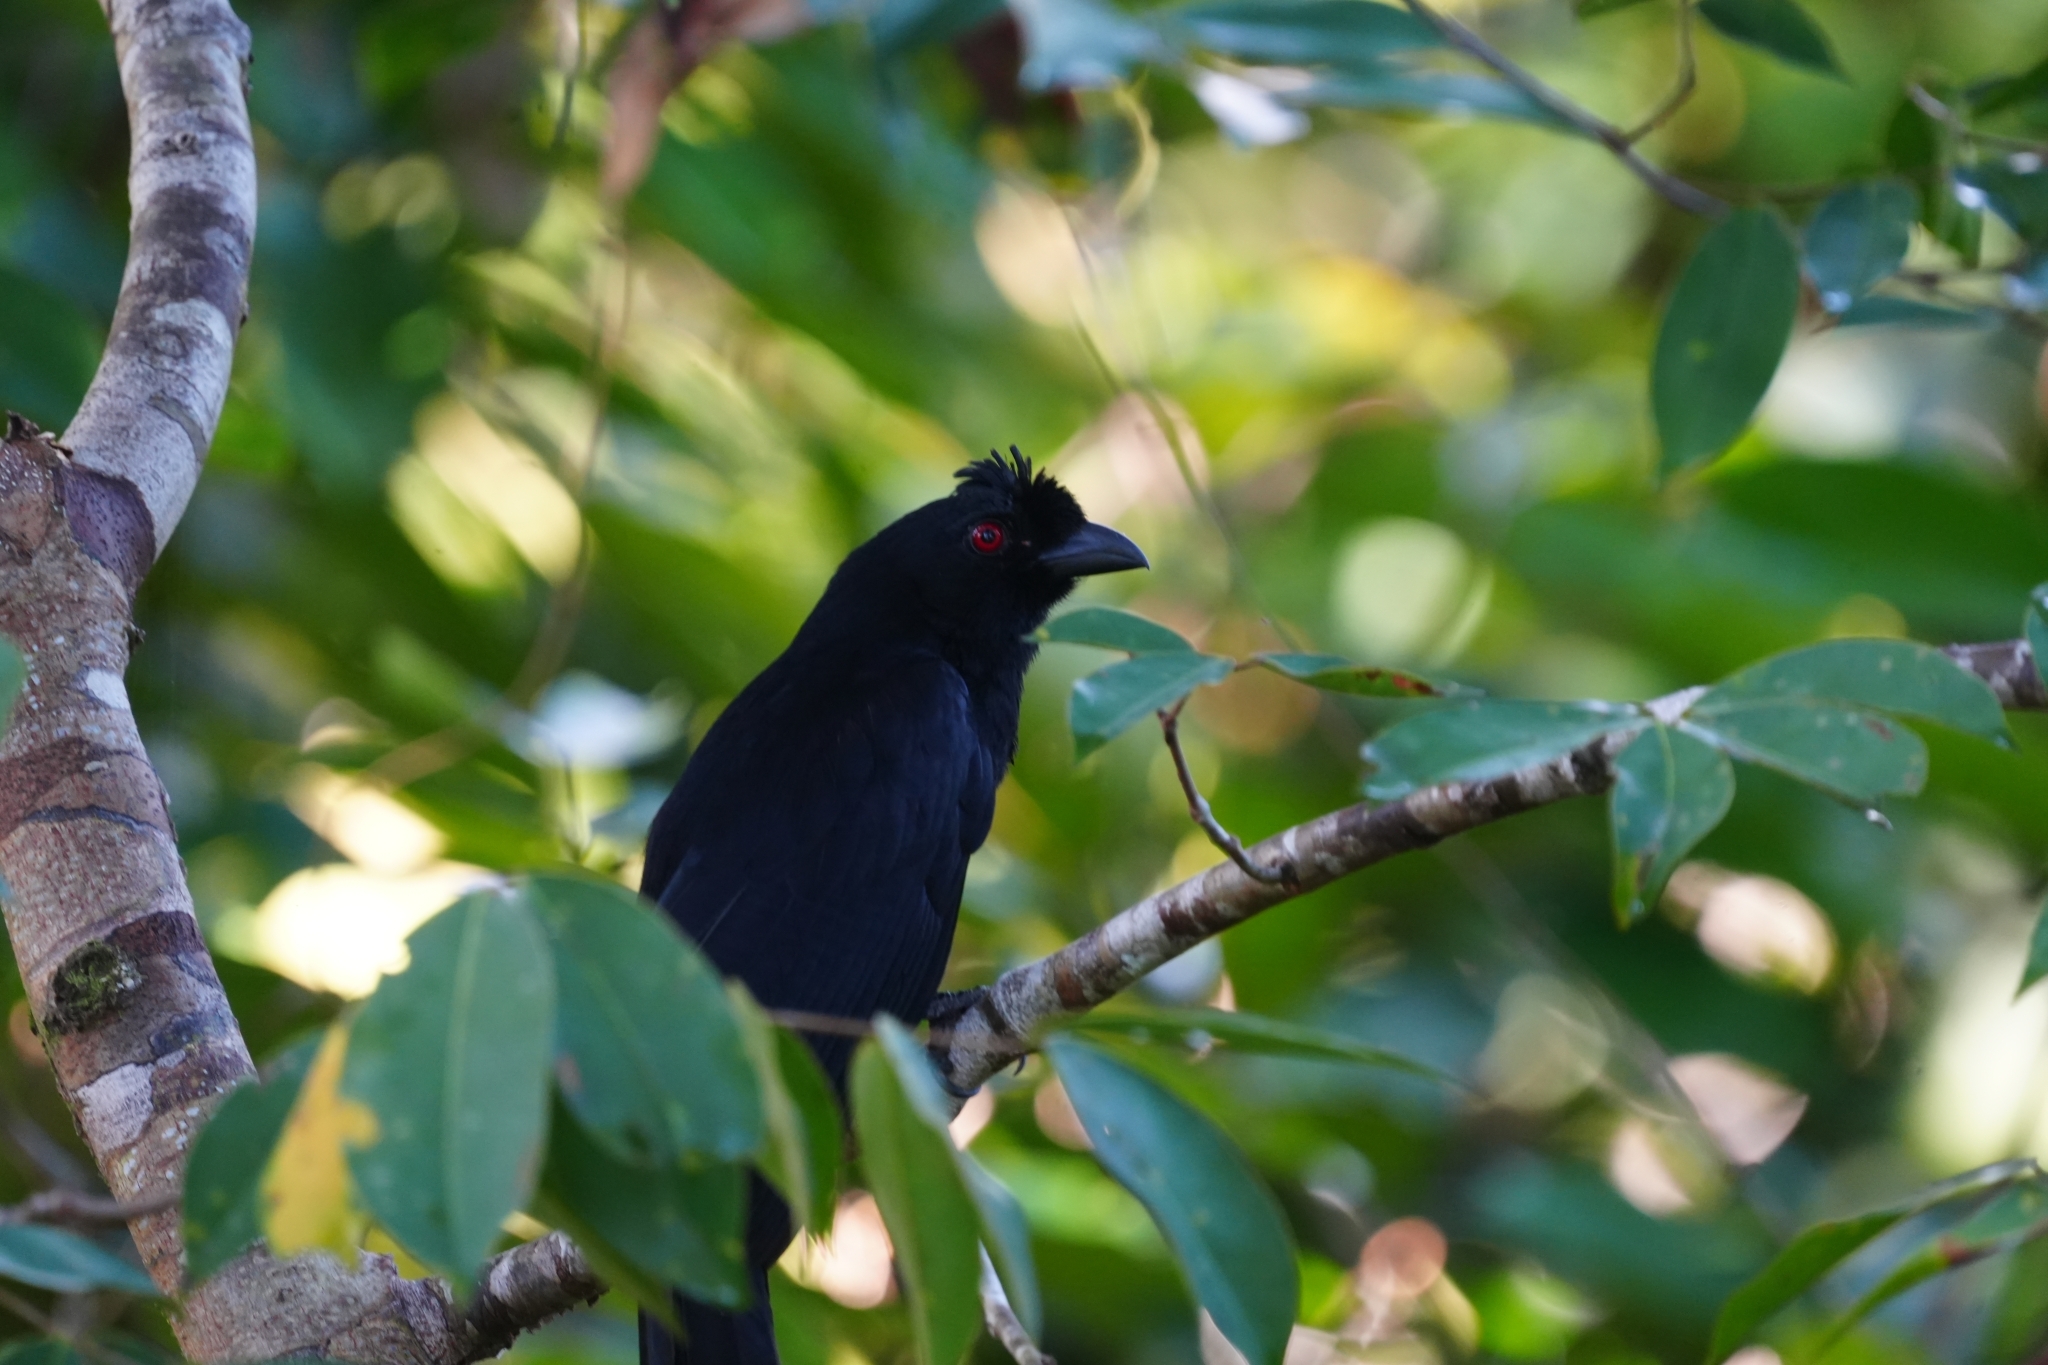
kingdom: Animalia
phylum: Chordata
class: Aves
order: Passeriformes
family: Corvidae
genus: Platysmurus
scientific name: Platysmurus leucopterus
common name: Black magpie
